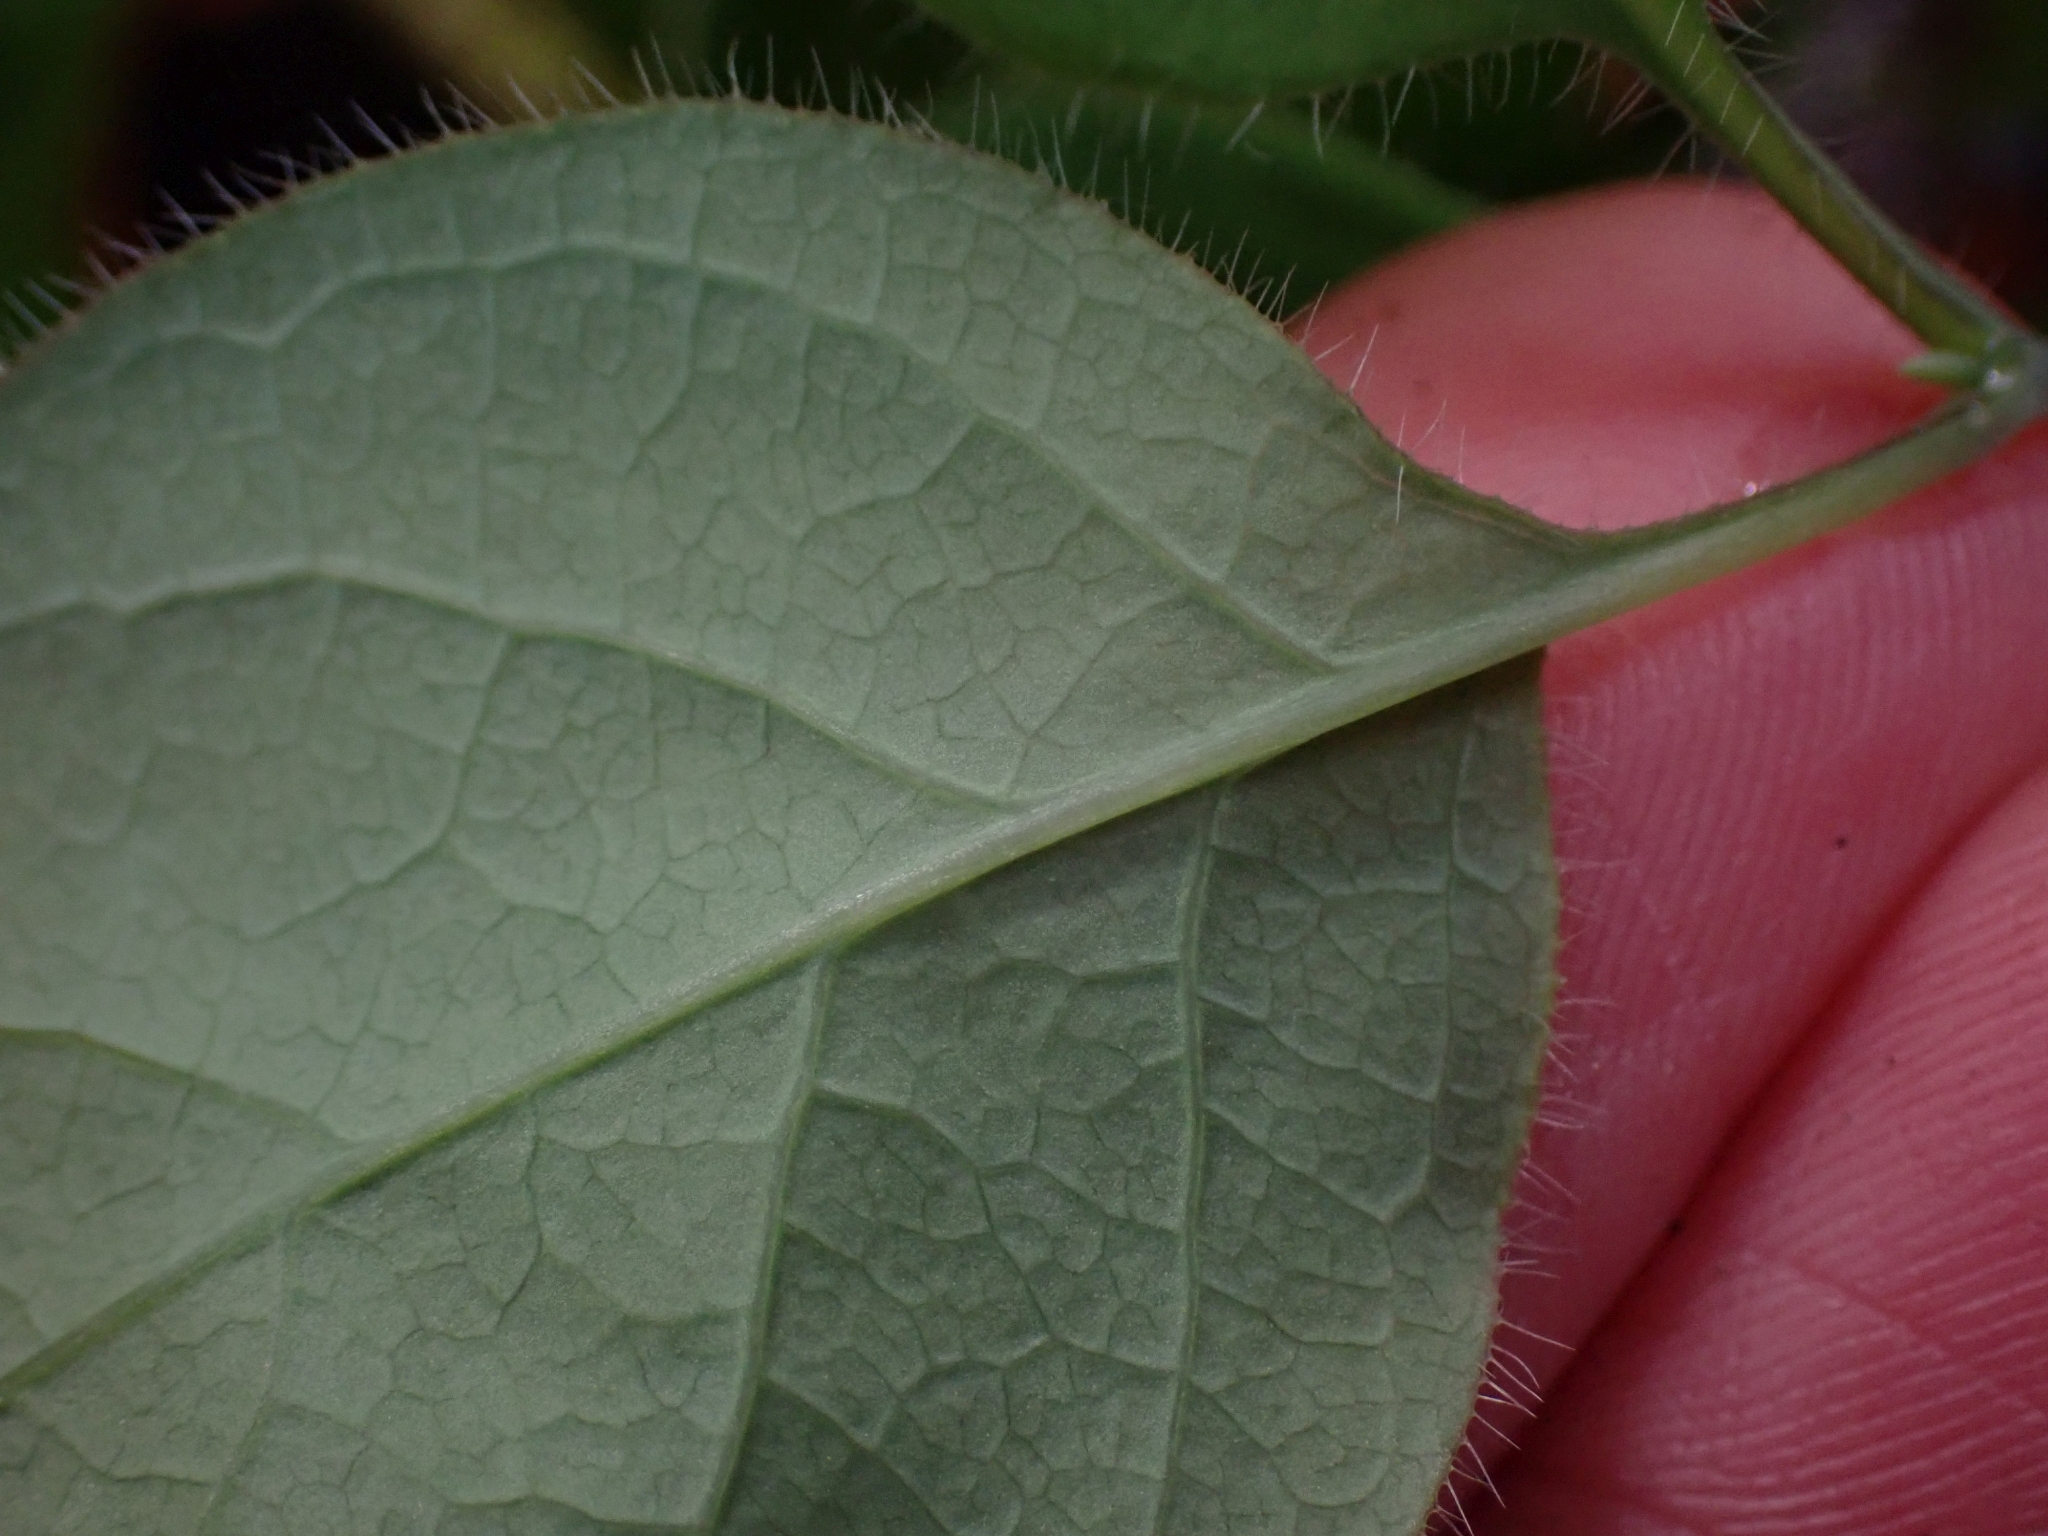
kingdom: Plantae
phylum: Tracheophyta
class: Magnoliopsida
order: Dipsacales
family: Caprifoliaceae
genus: Lonicera
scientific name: Lonicera ciliosa
